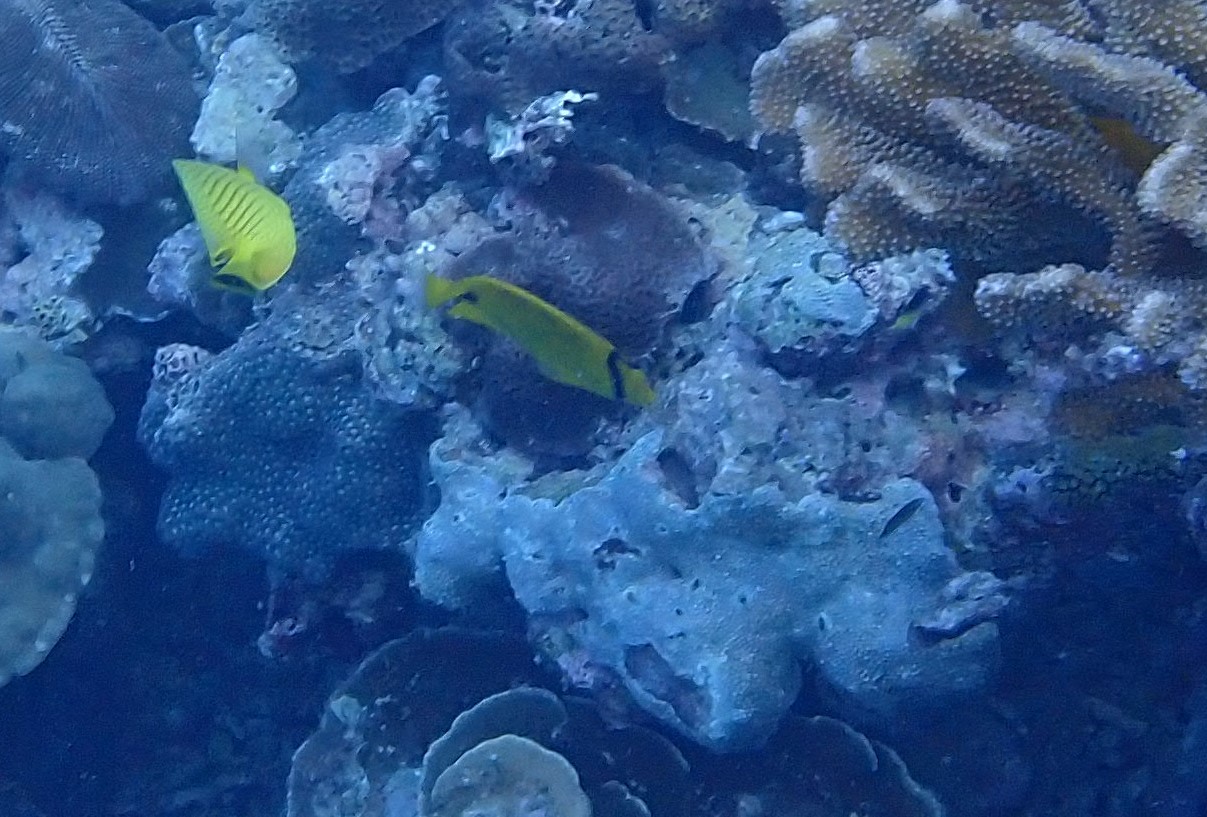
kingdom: Animalia
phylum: Chordata
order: Perciformes
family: Chaetodontidae
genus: Chaetodon
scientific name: Chaetodon andamanensis
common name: Yellow butterflyfish
